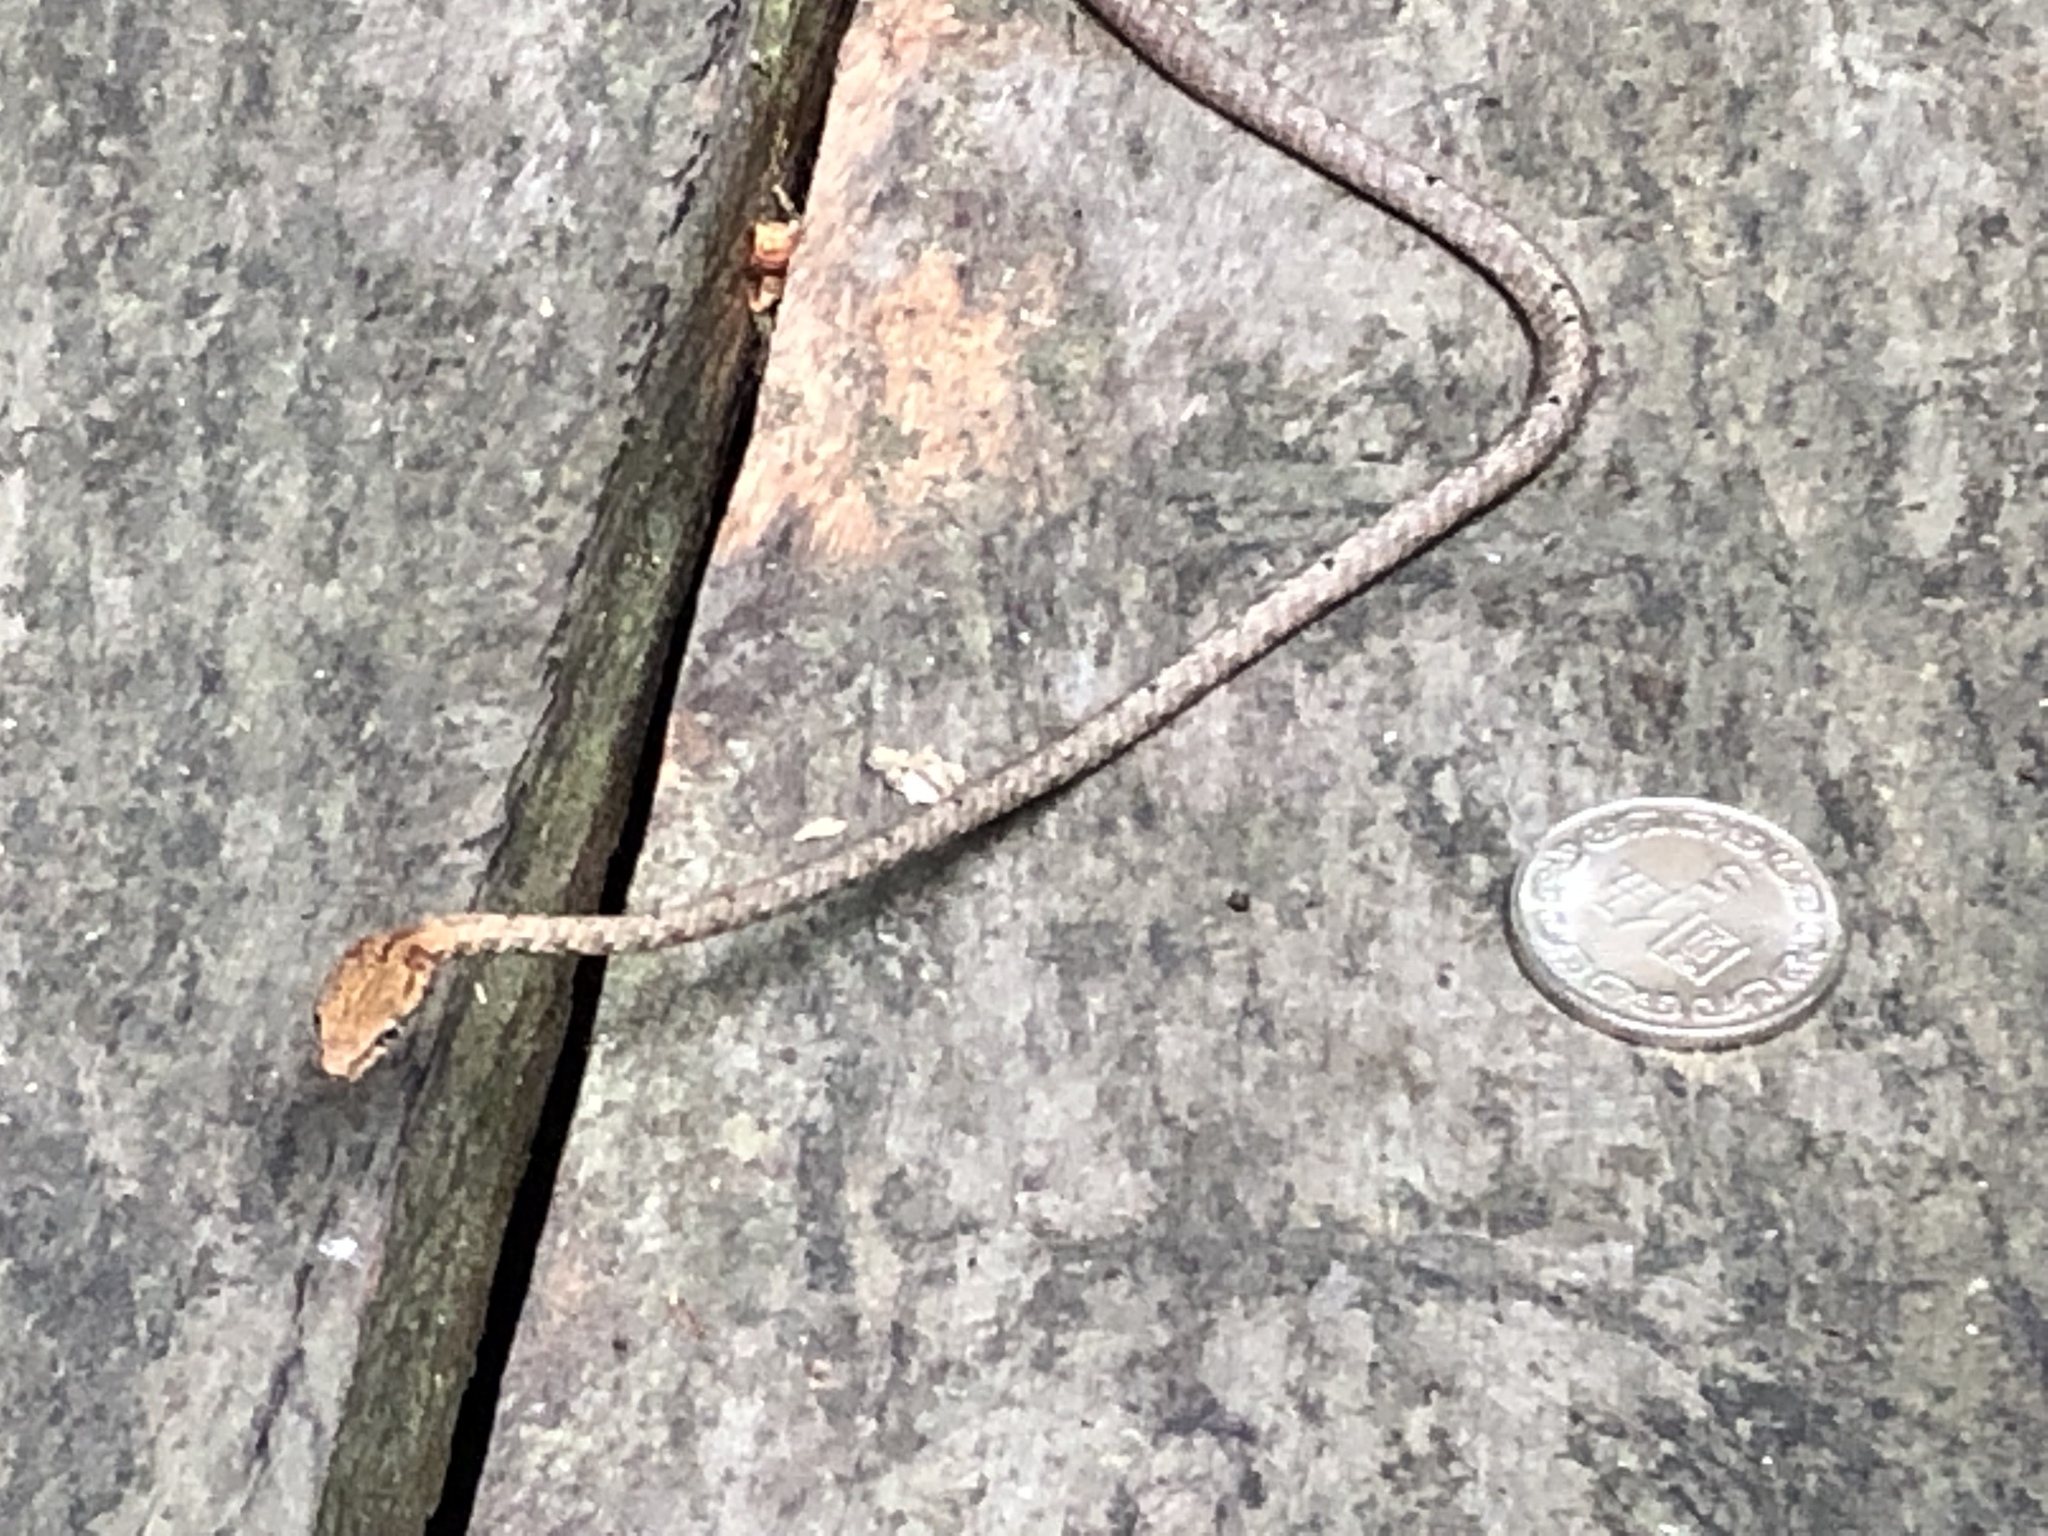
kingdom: Animalia
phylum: Chordata
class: Squamata
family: Colubridae
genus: Dryophiops
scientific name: Dryophiops rubescens
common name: Red whip snake
